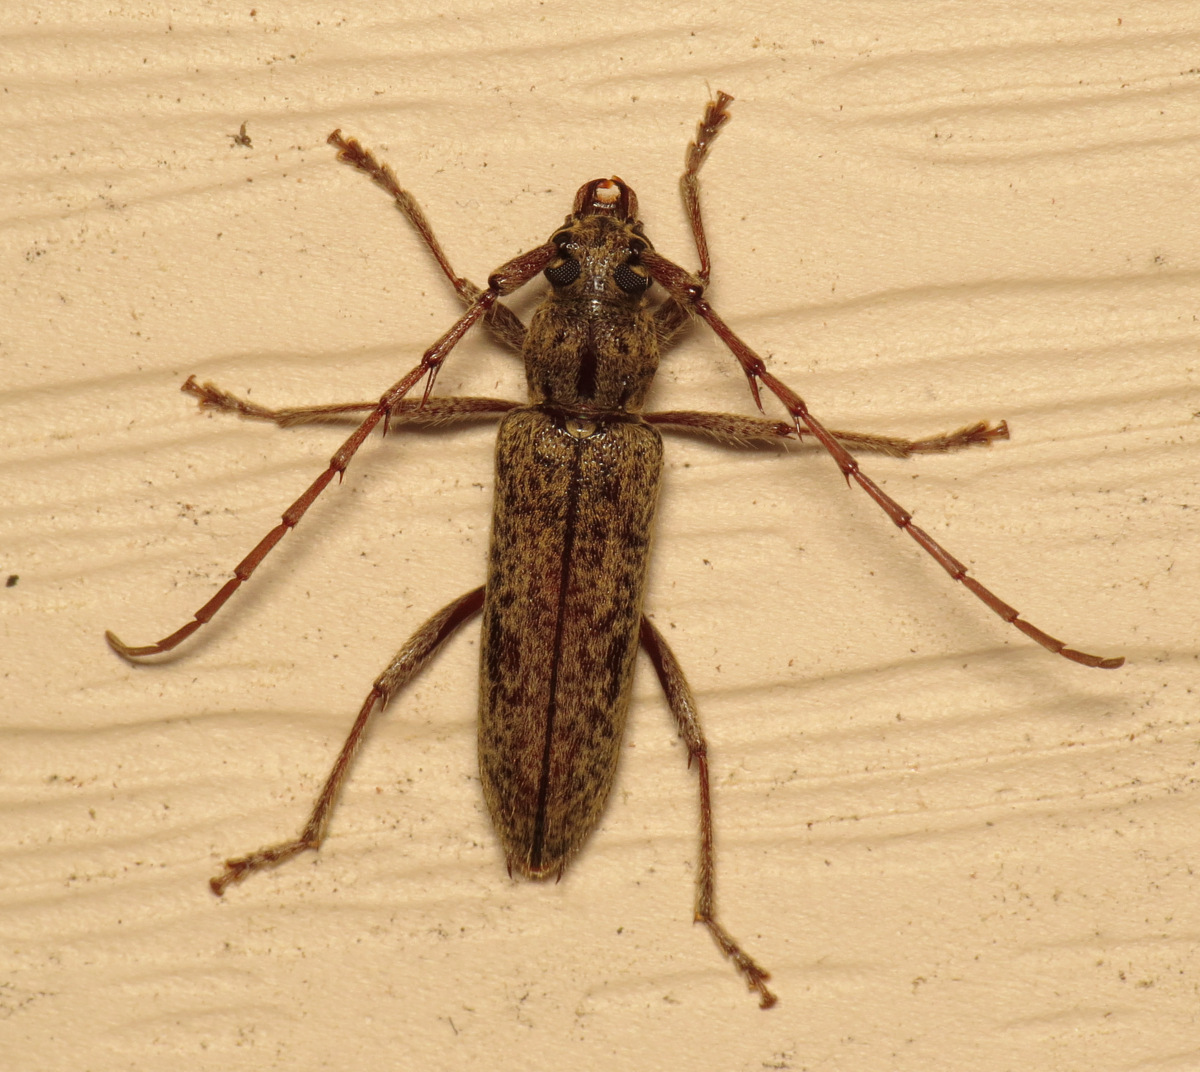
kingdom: Animalia
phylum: Arthropoda
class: Insecta
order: Coleoptera
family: Cerambycidae
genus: Elaphidion
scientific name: Elaphidion mucronatum
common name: Spined oak borer
